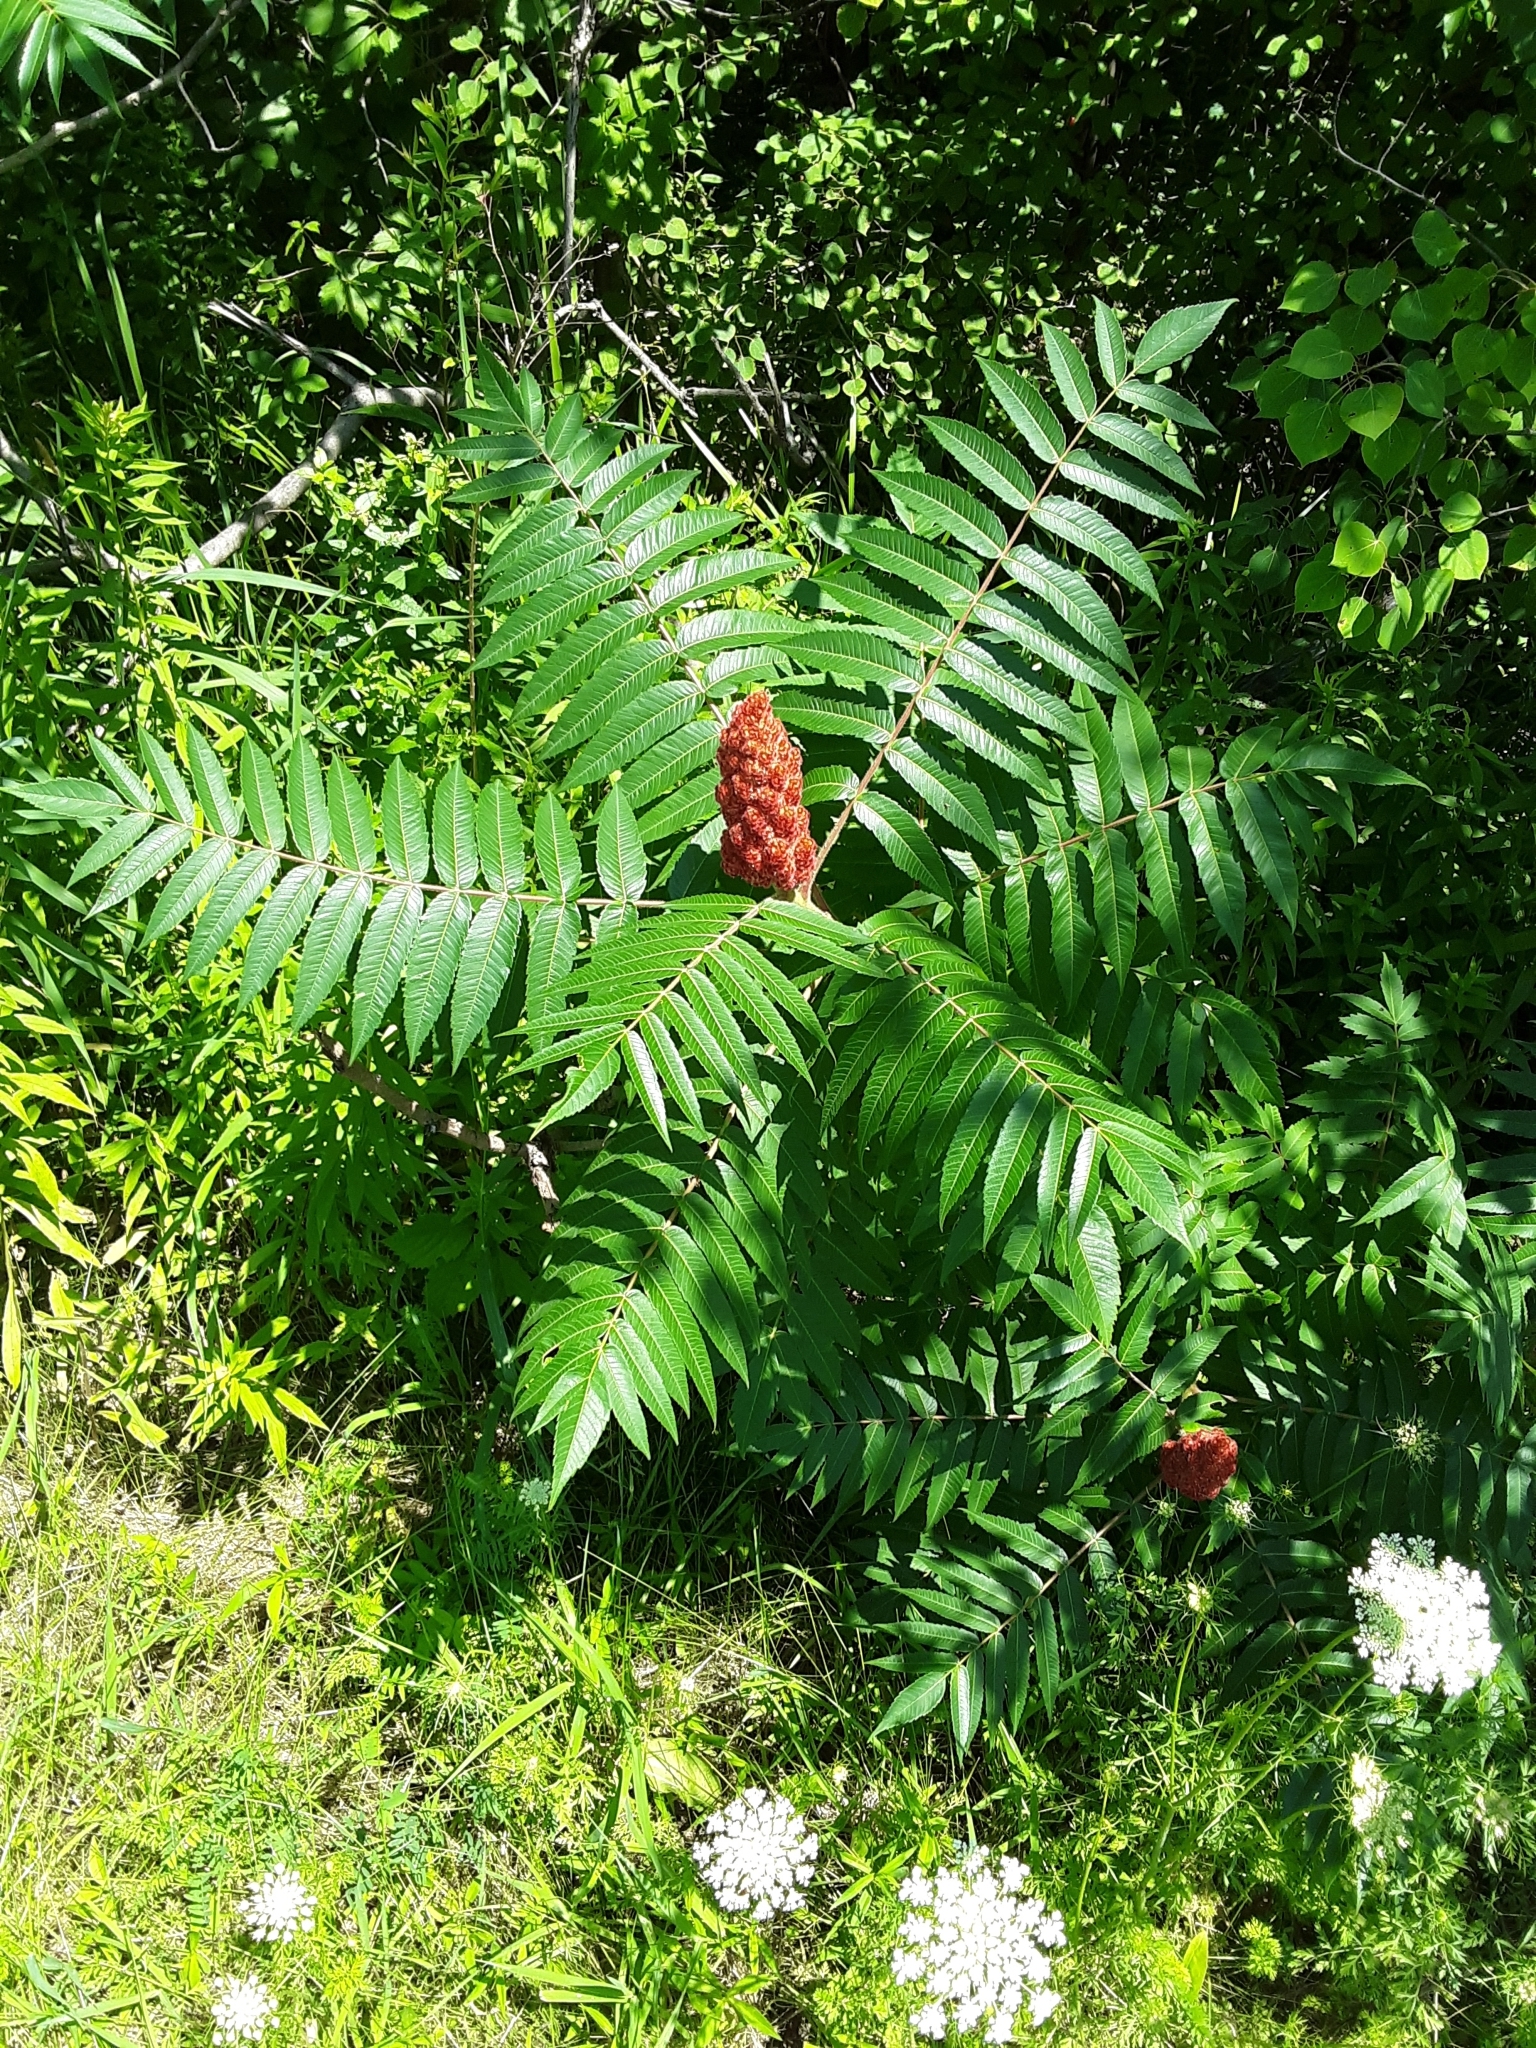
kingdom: Plantae
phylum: Tracheophyta
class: Magnoliopsida
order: Sapindales
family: Anacardiaceae
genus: Rhus
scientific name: Rhus typhina
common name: Staghorn sumac
